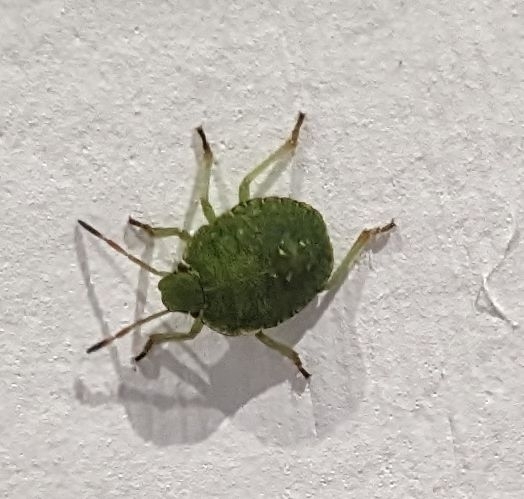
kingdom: Animalia
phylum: Arthropoda
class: Insecta
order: Hemiptera
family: Pentatomidae
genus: Palomena
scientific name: Palomena prasina
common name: Green shieldbug
